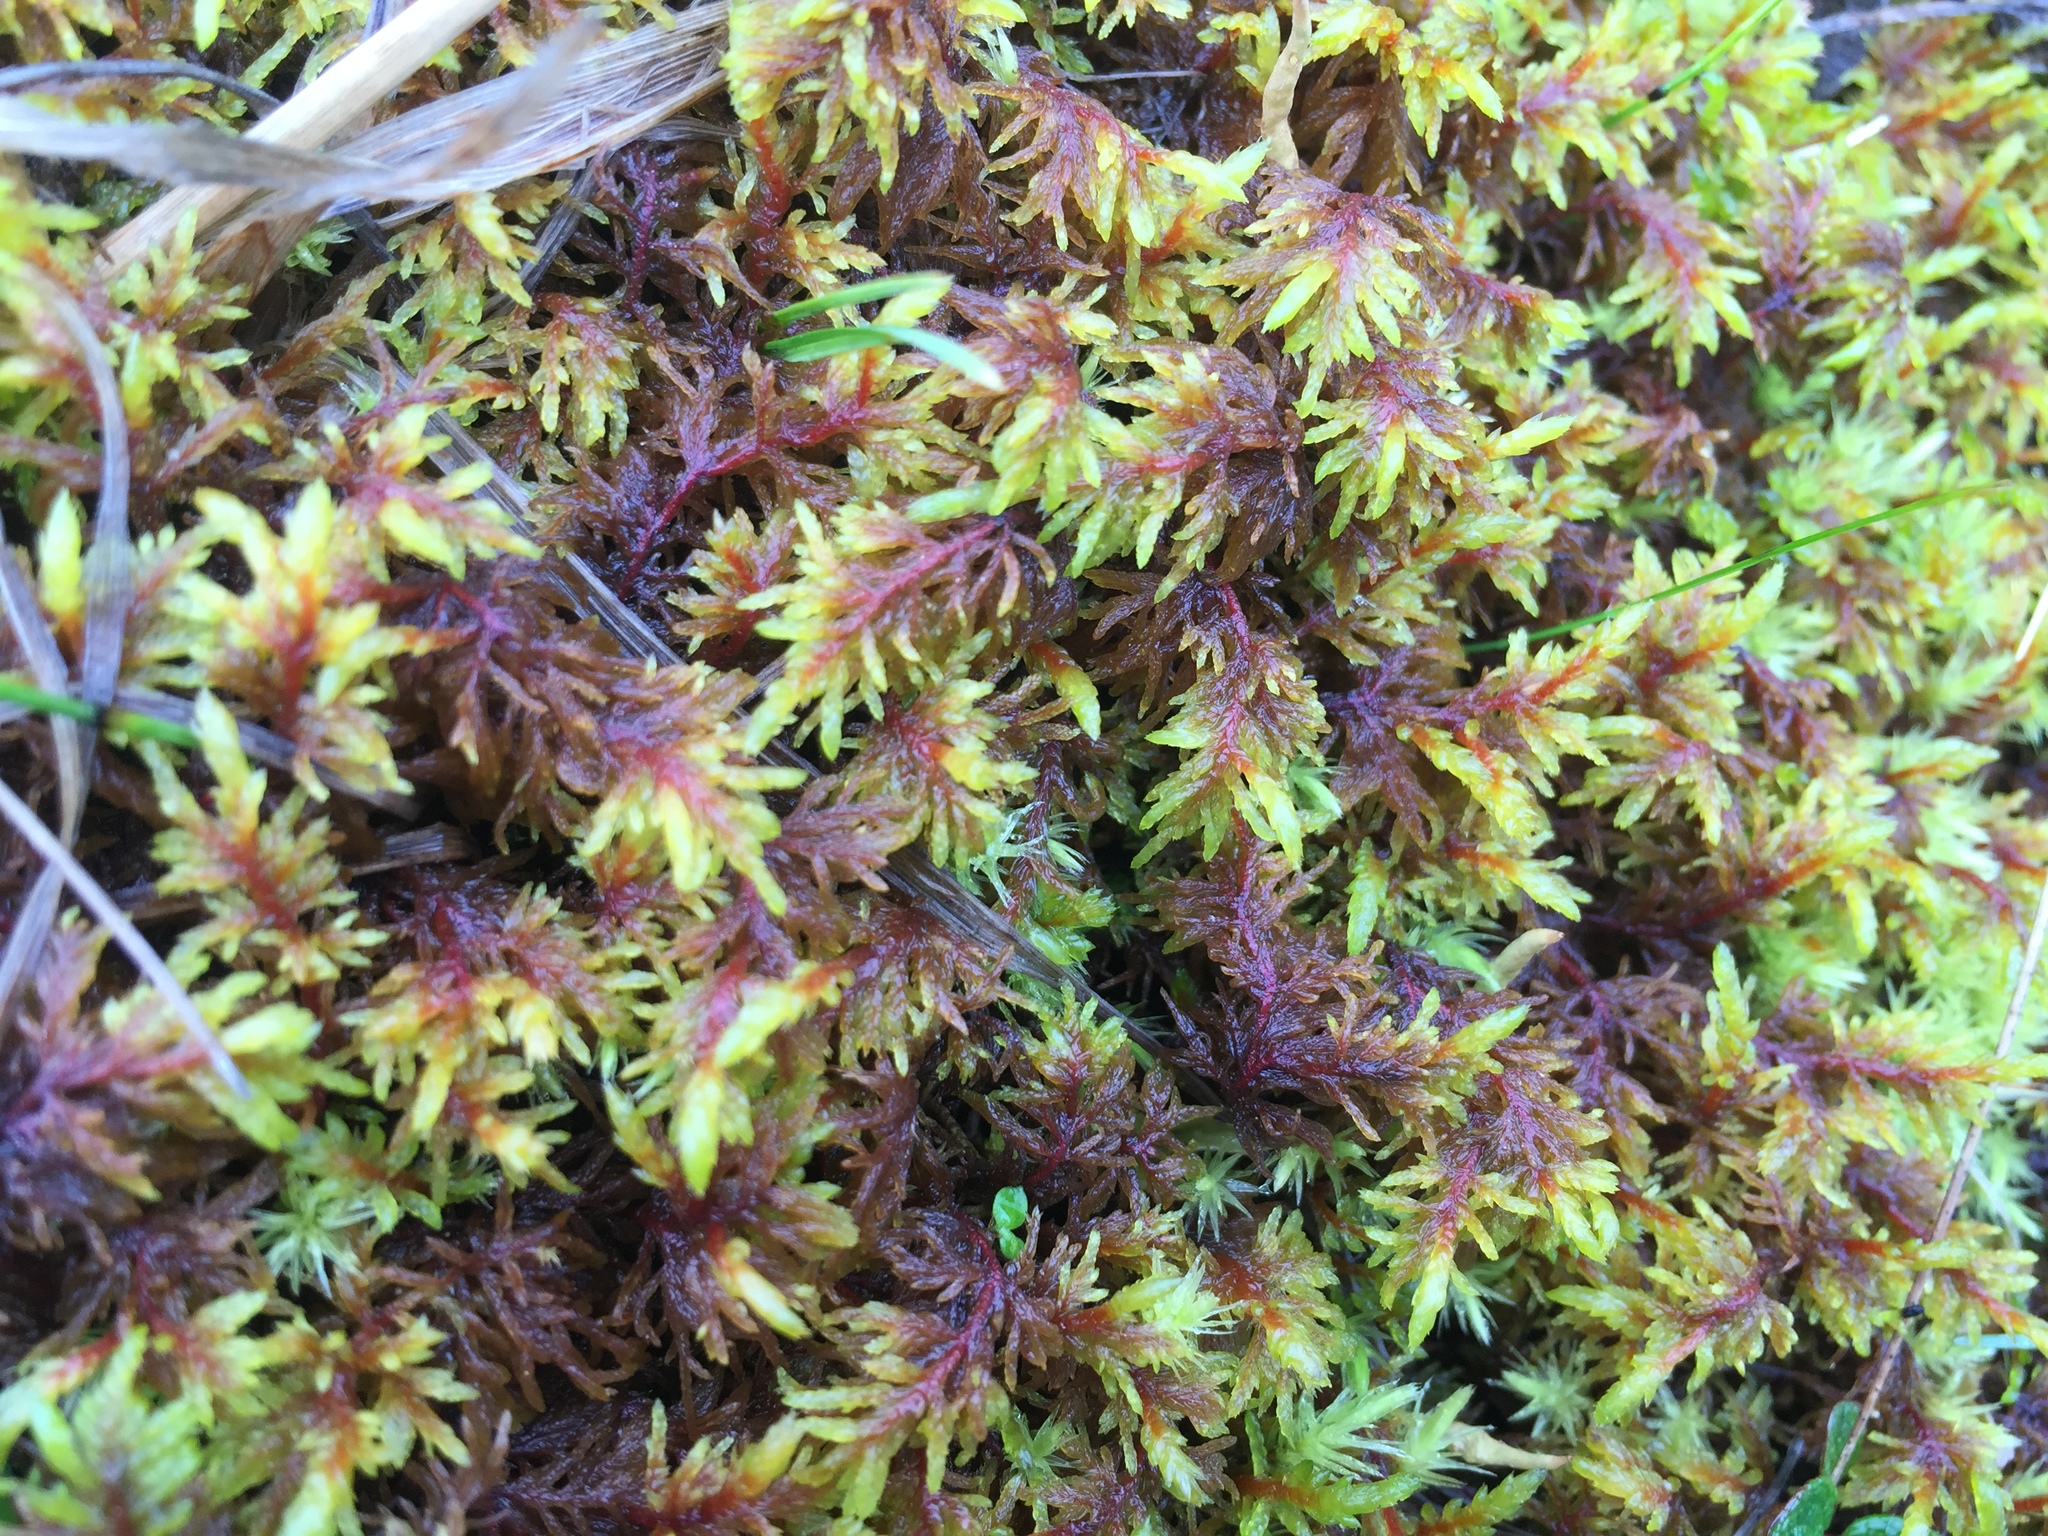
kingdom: Plantae
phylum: Bryophyta
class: Bryopsida
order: Hypnales
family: Hylocomiaceae
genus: Hylocomium
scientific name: Hylocomium splendens
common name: Stairstep moss
